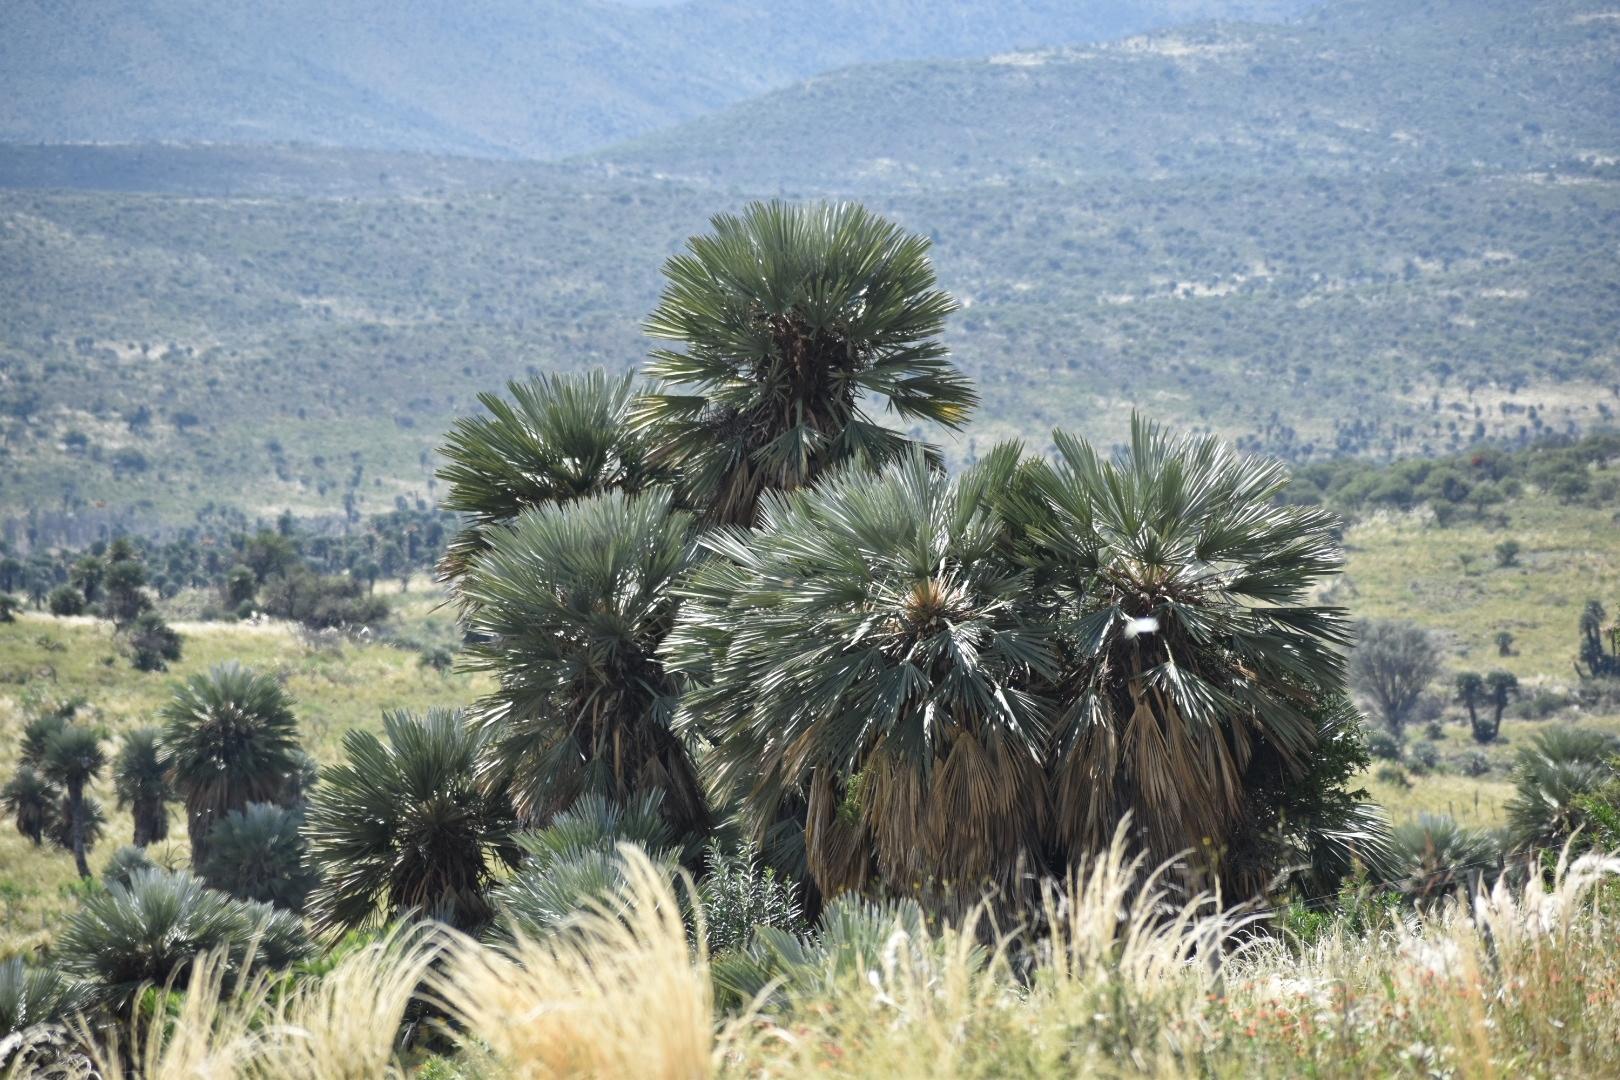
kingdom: Plantae
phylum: Tracheophyta
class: Liliopsida
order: Arecales
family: Arecaceae
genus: Trithrinax
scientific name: Trithrinax campestris
